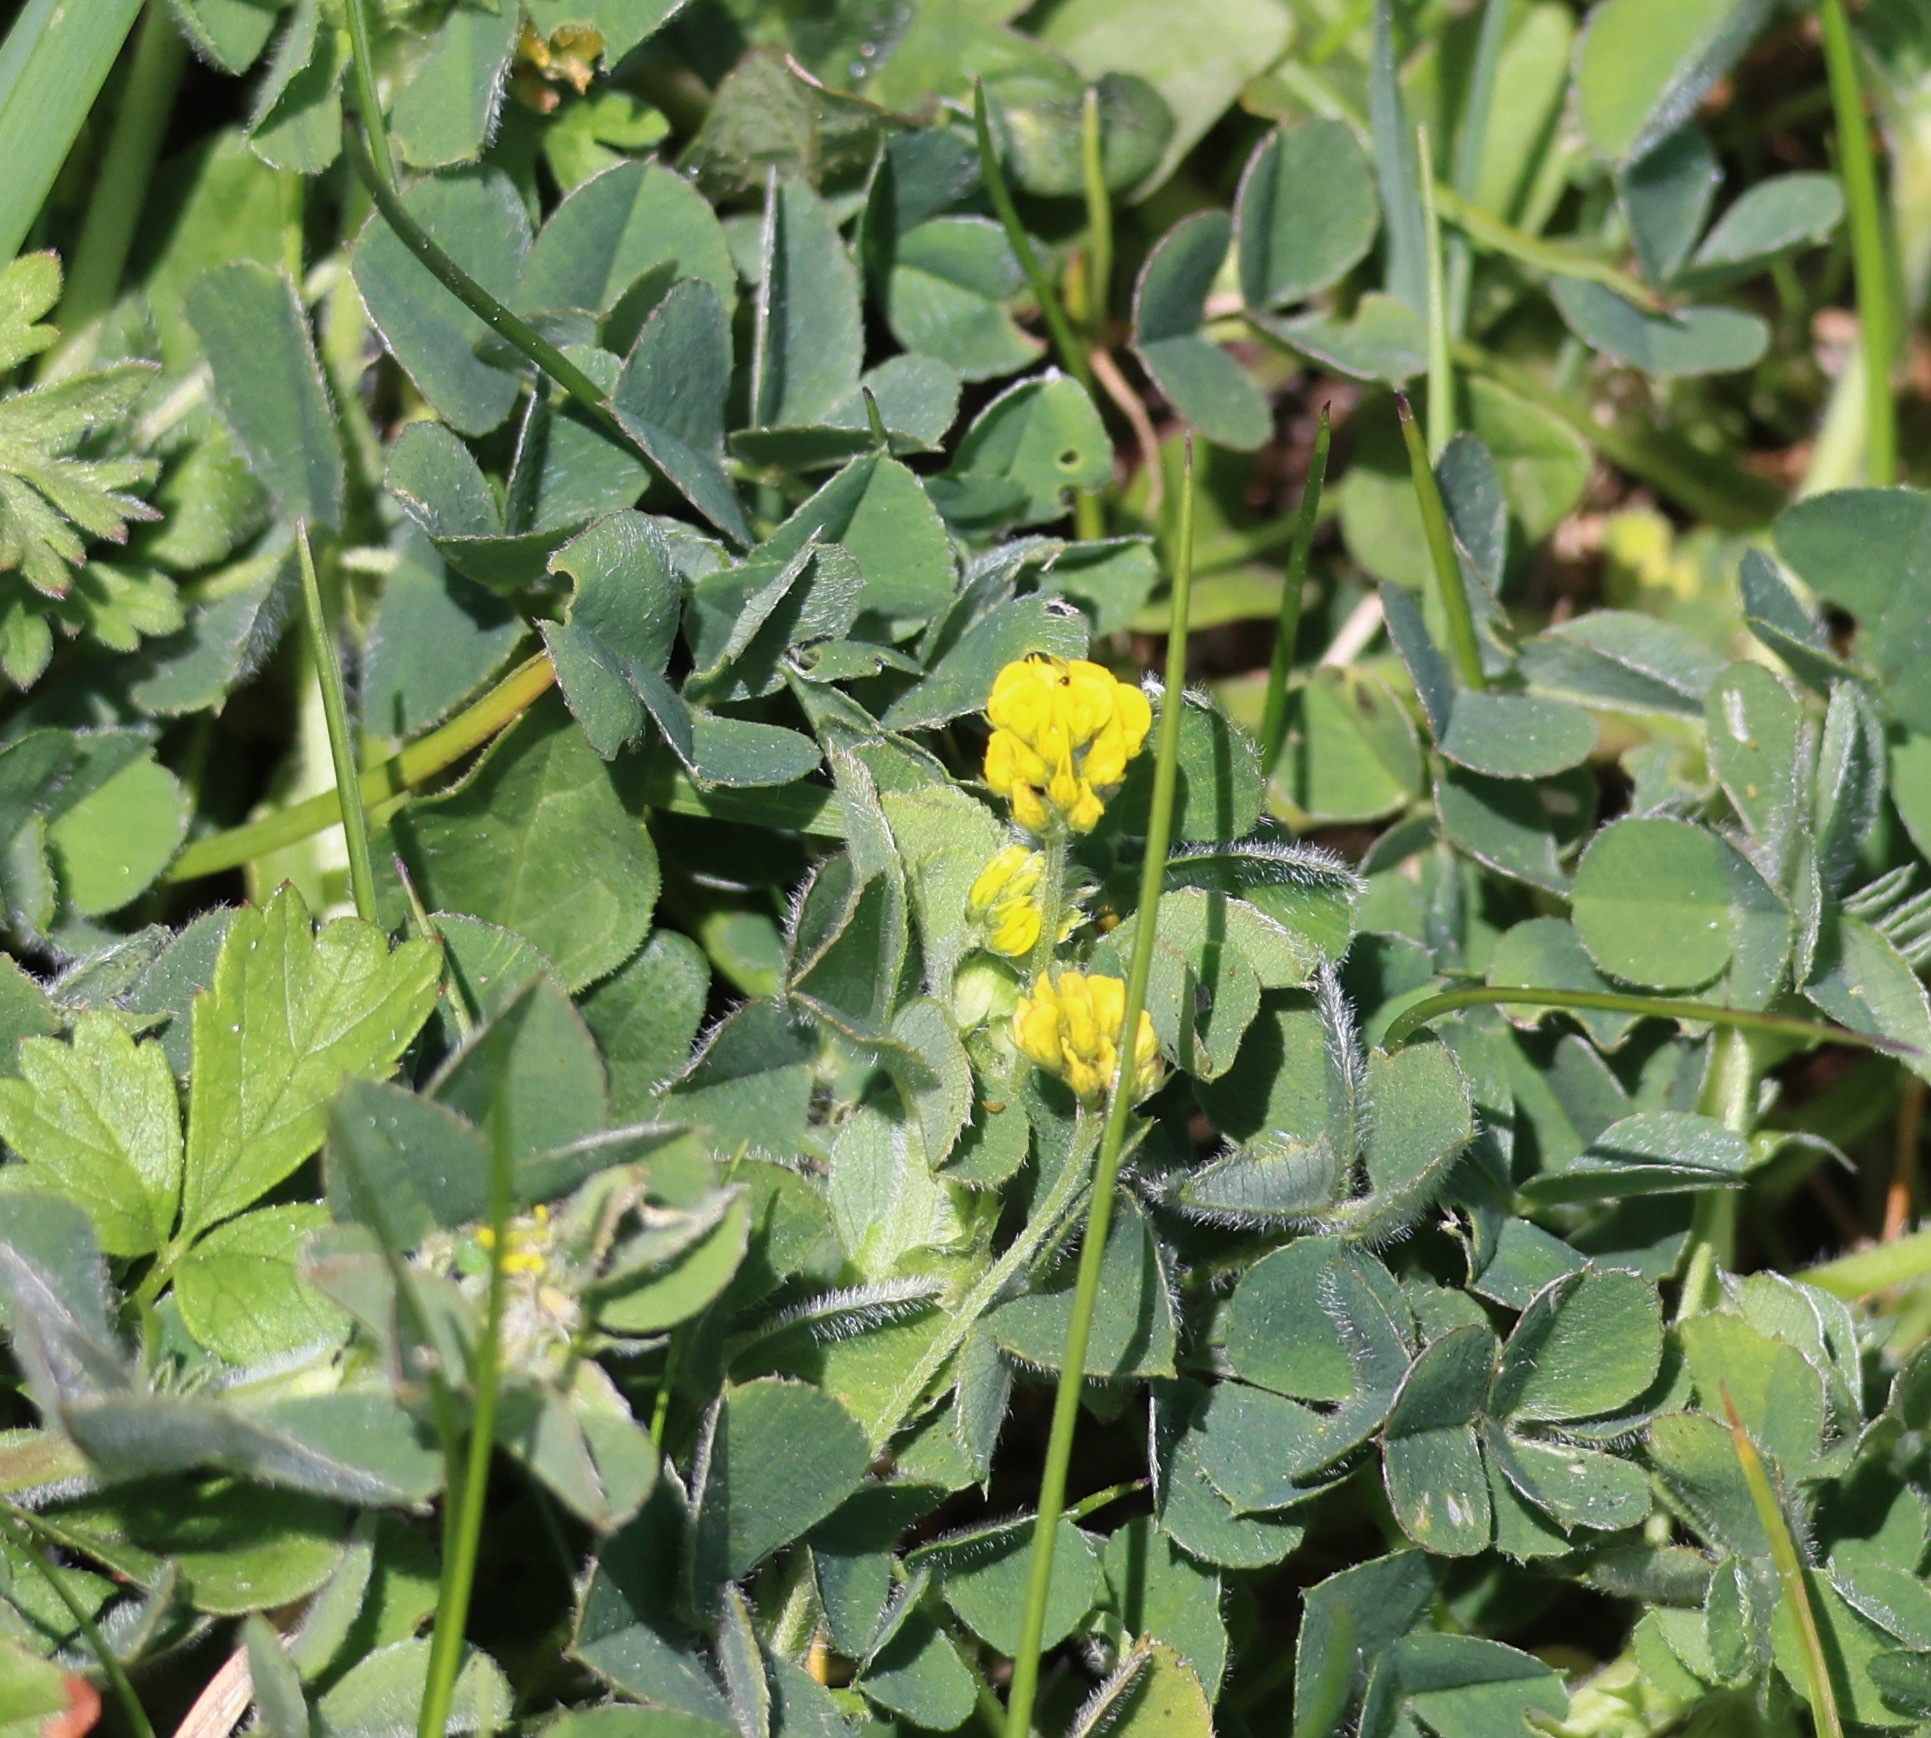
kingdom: Plantae
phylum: Tracheophyta
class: Magnoliopsida
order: Fabales
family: Fabaceae
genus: Medicago
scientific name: Medicago lupulina
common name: Black medick
